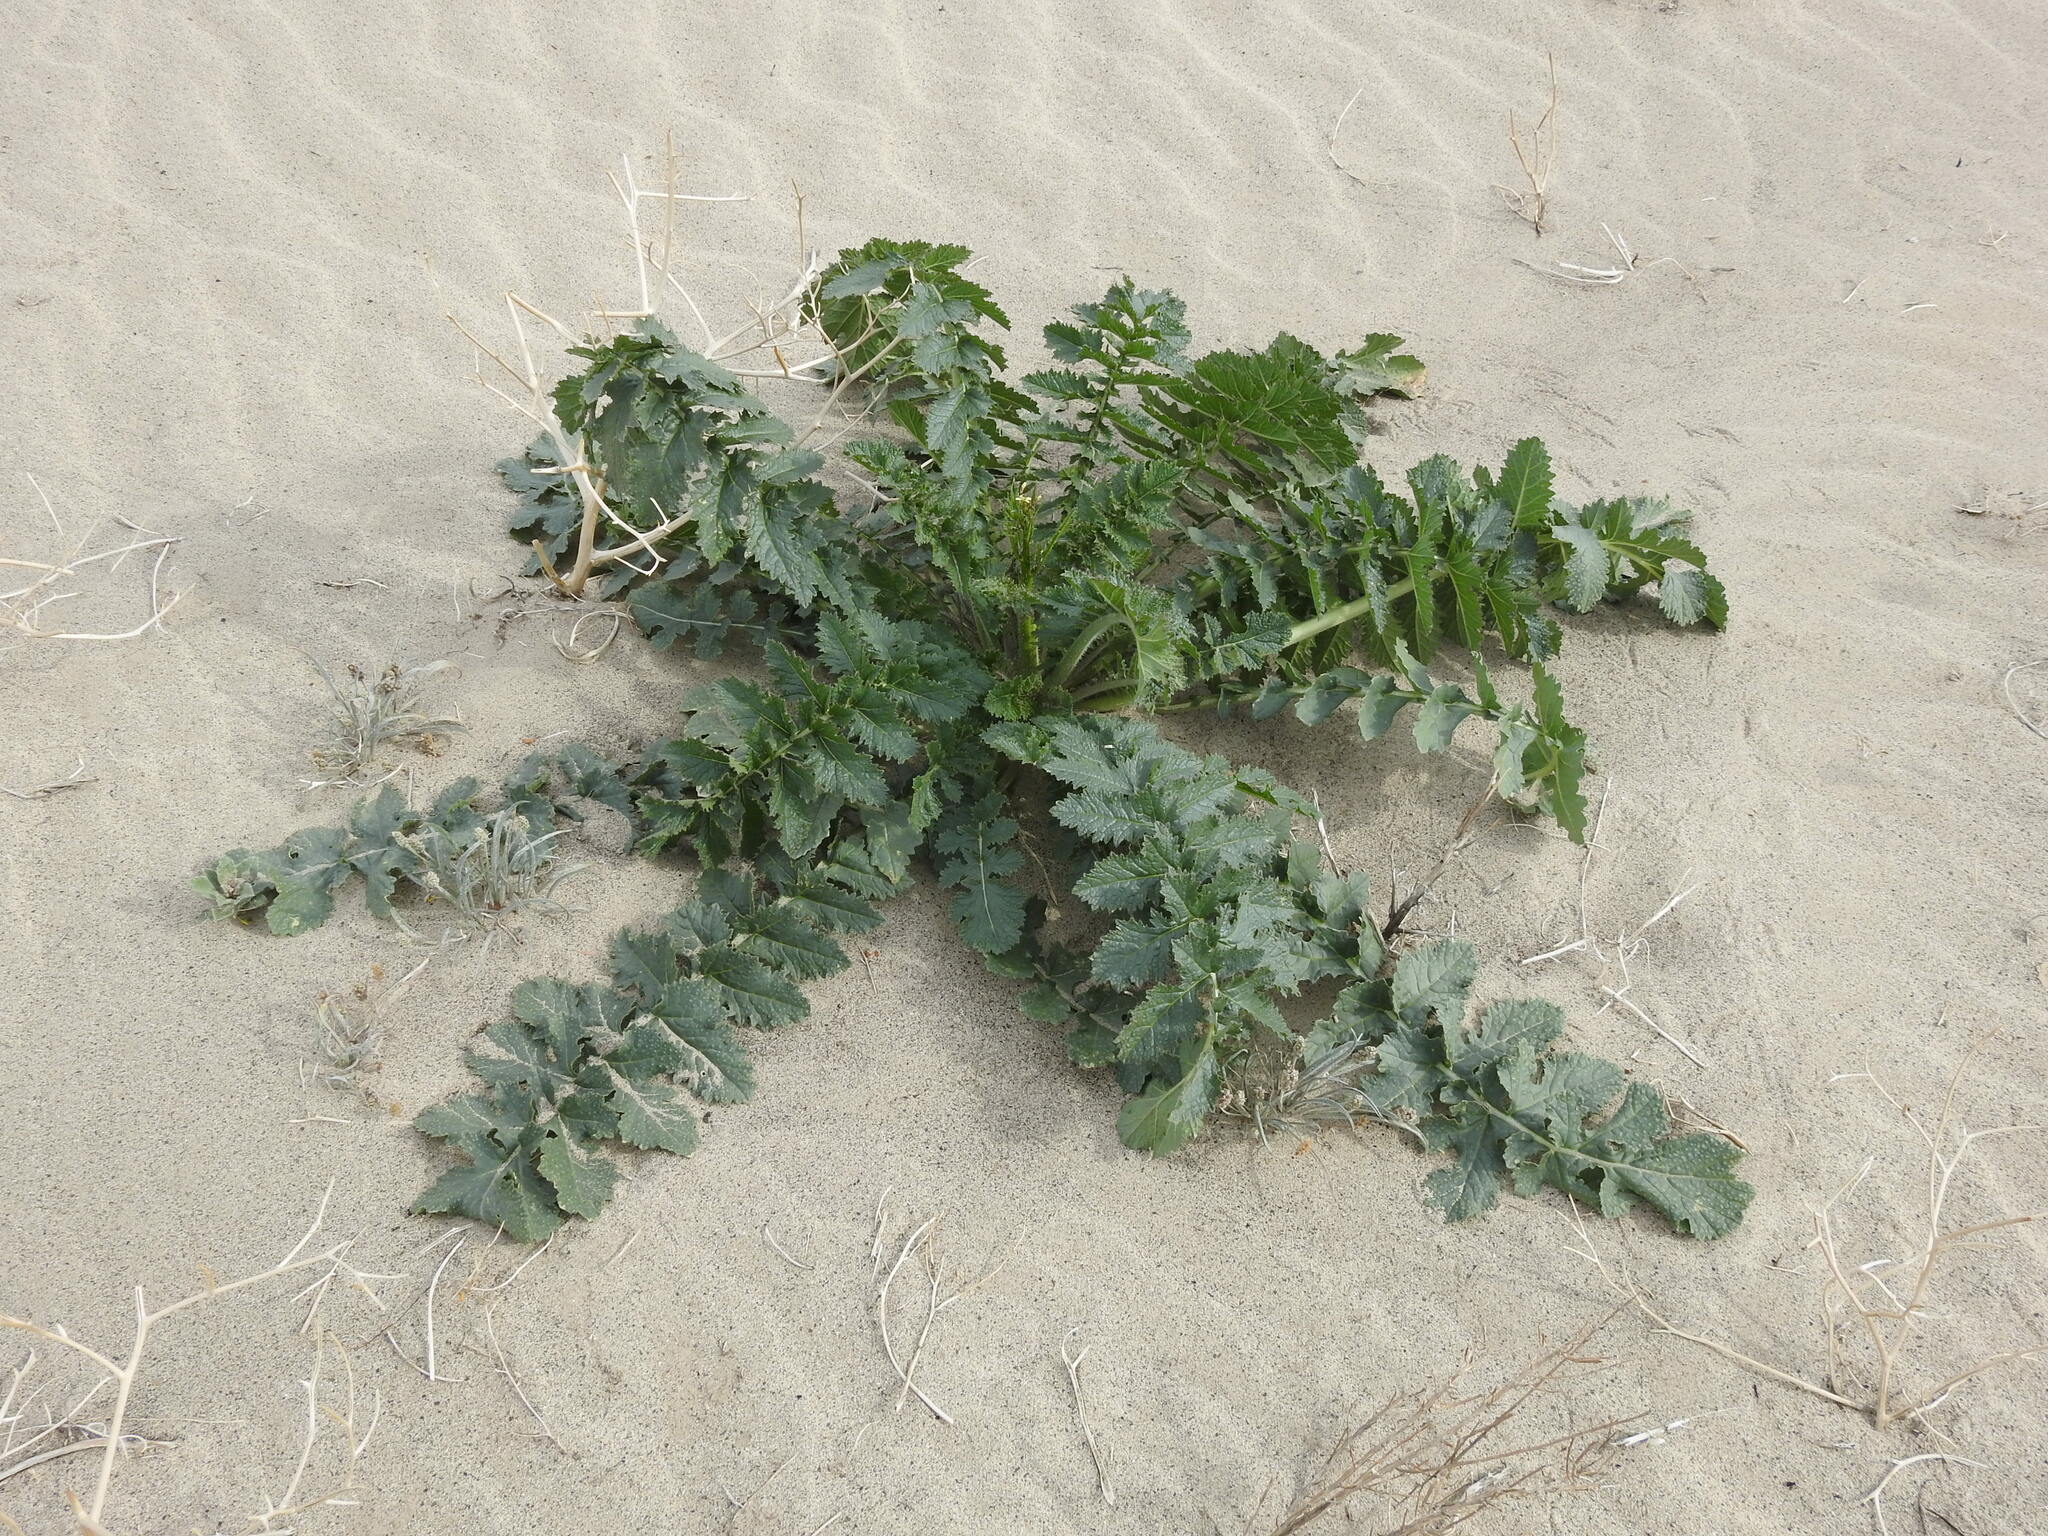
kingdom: Plantae
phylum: Tracheophyta
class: Magnoliopsida
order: Brassicales
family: Brassicaceae
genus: Brassica
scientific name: Brassica tournefortii
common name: Pale cabbage
